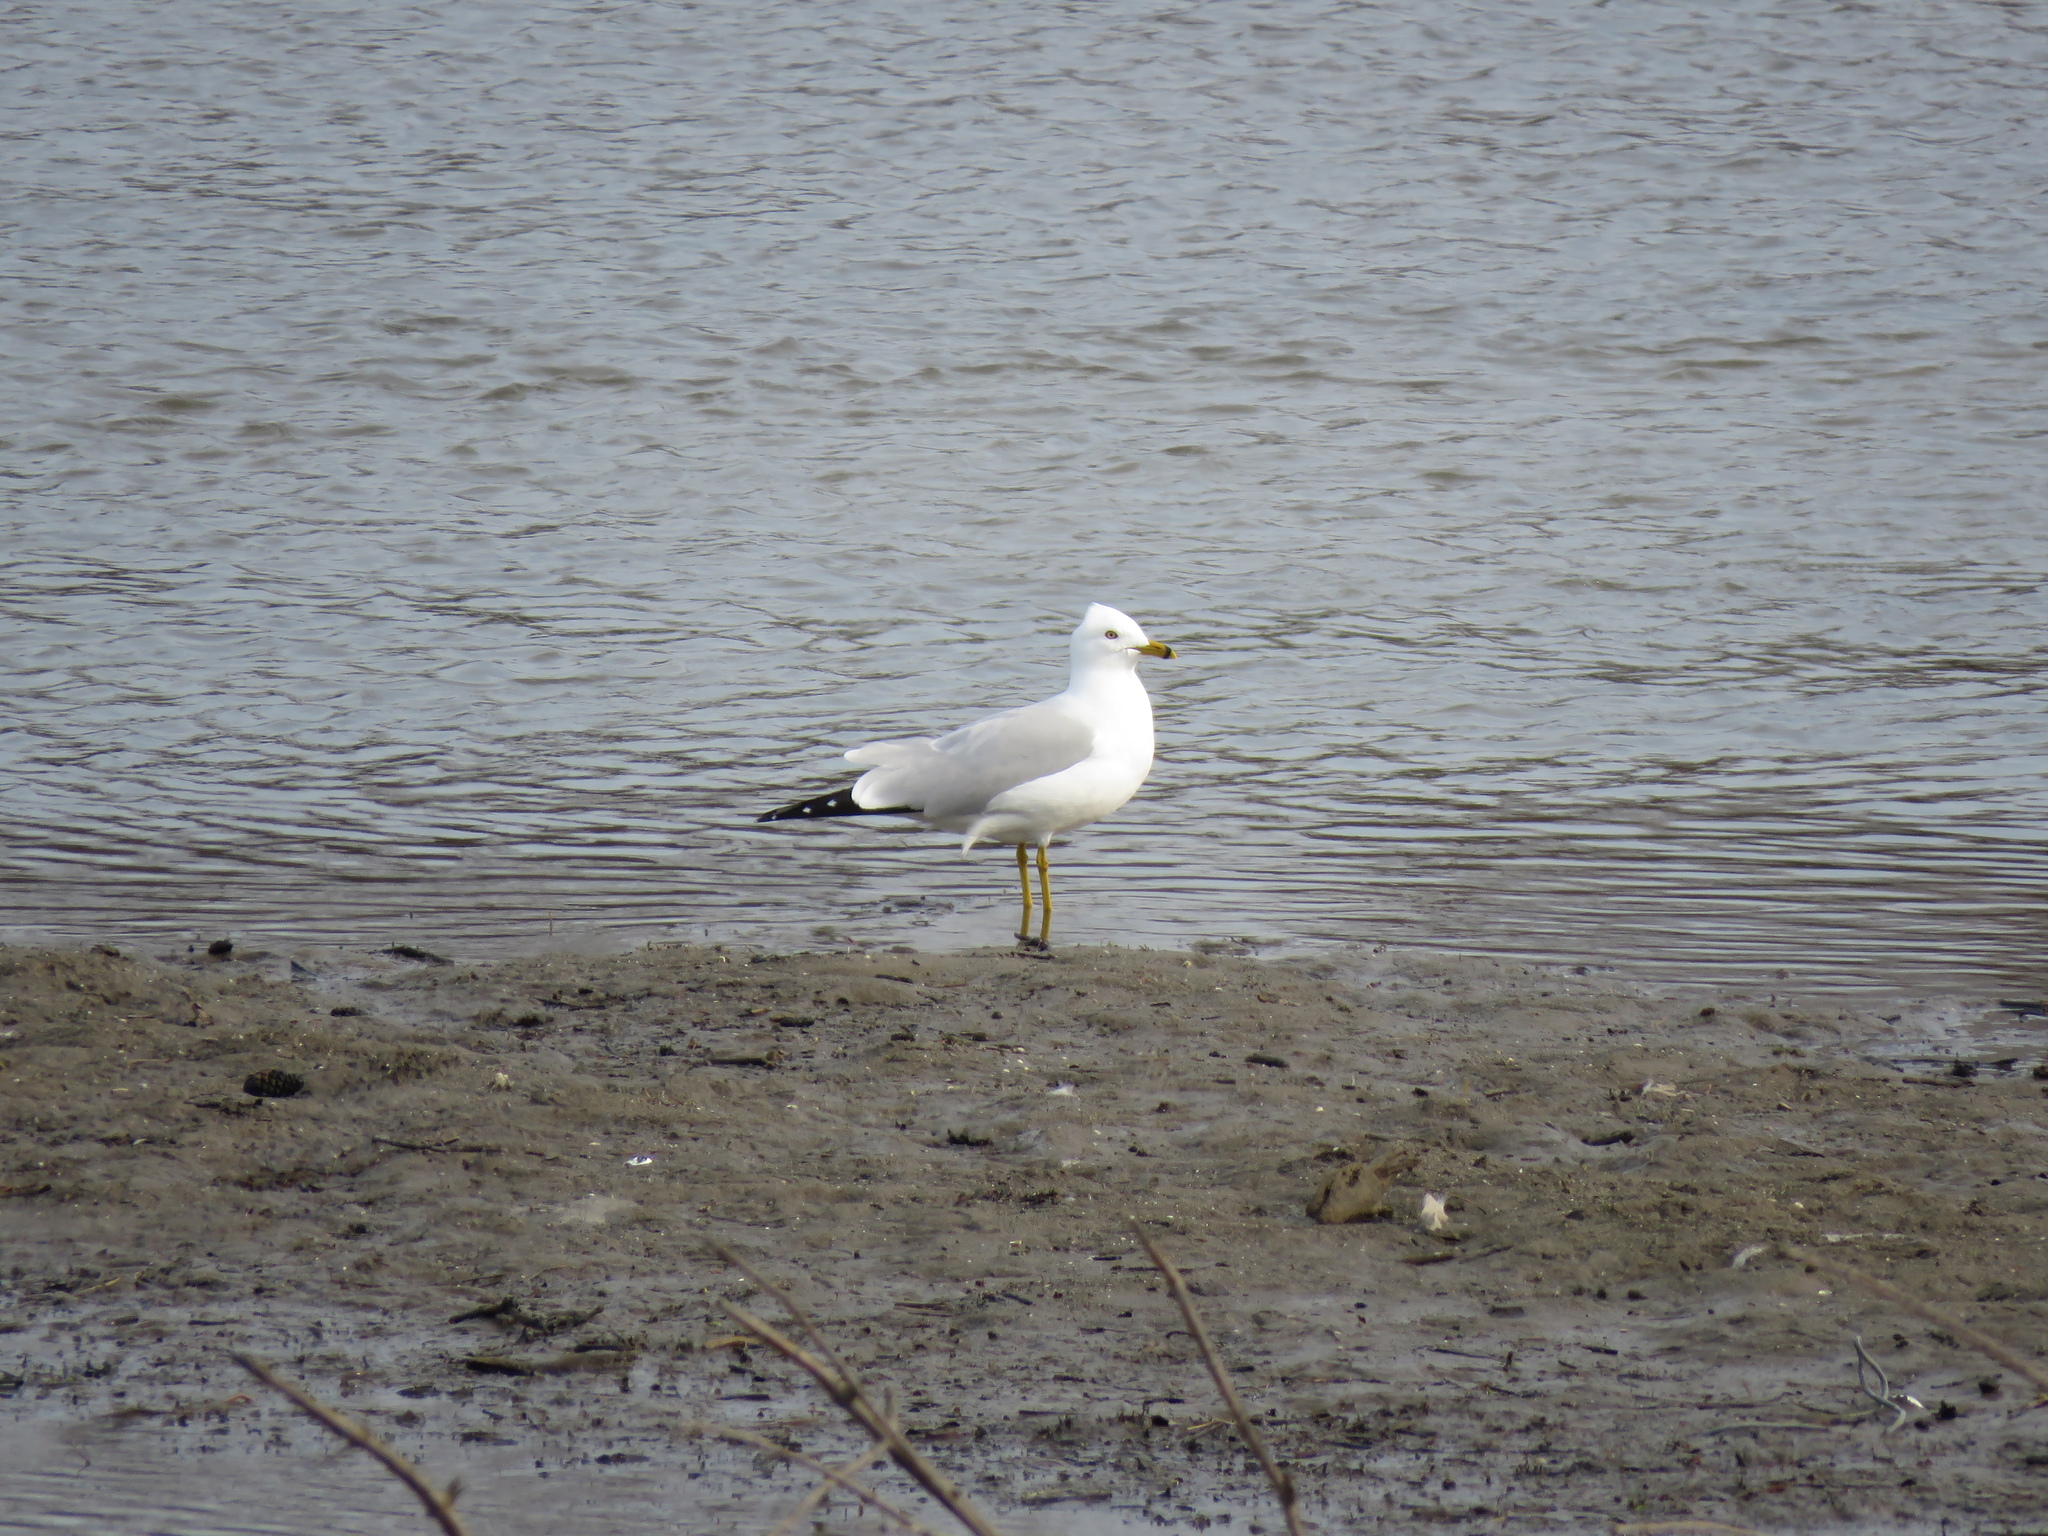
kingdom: Animalia
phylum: Chordata
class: Aves
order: Charadriiformes
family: Laridae
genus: Larus
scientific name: Larus delawarensis
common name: Ring-billed gull
